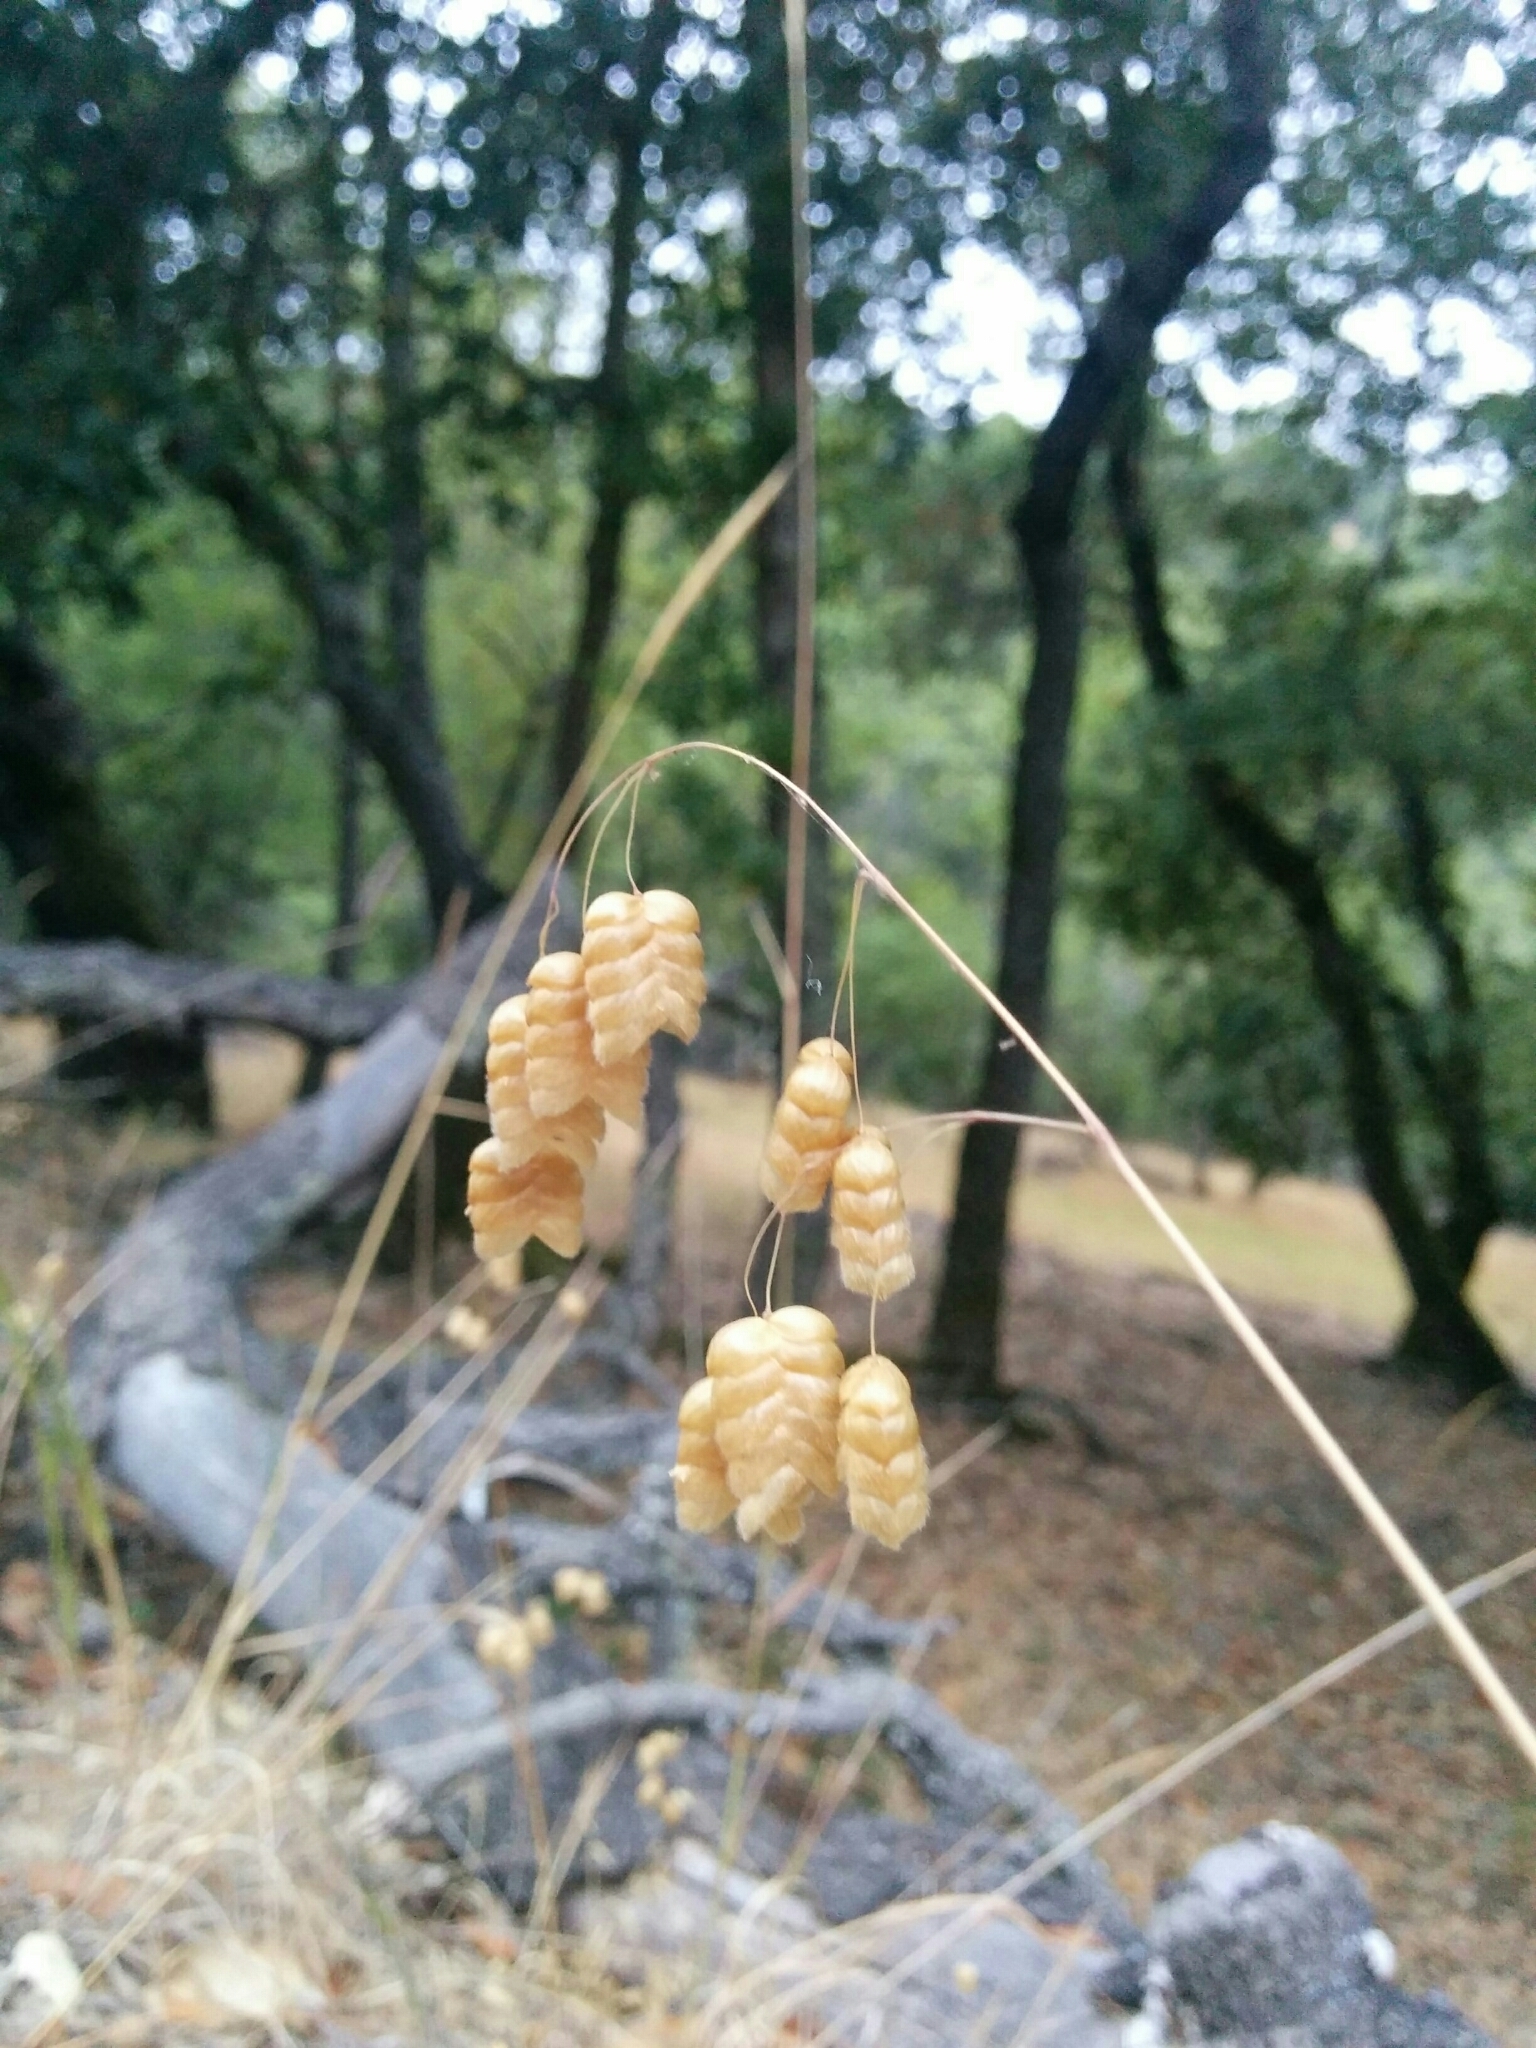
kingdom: Plantae
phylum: Tracheophyta
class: Liliopsida
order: Poales
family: Poaceae
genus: Briza
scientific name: Briza maxima
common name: Big quakinggrass
